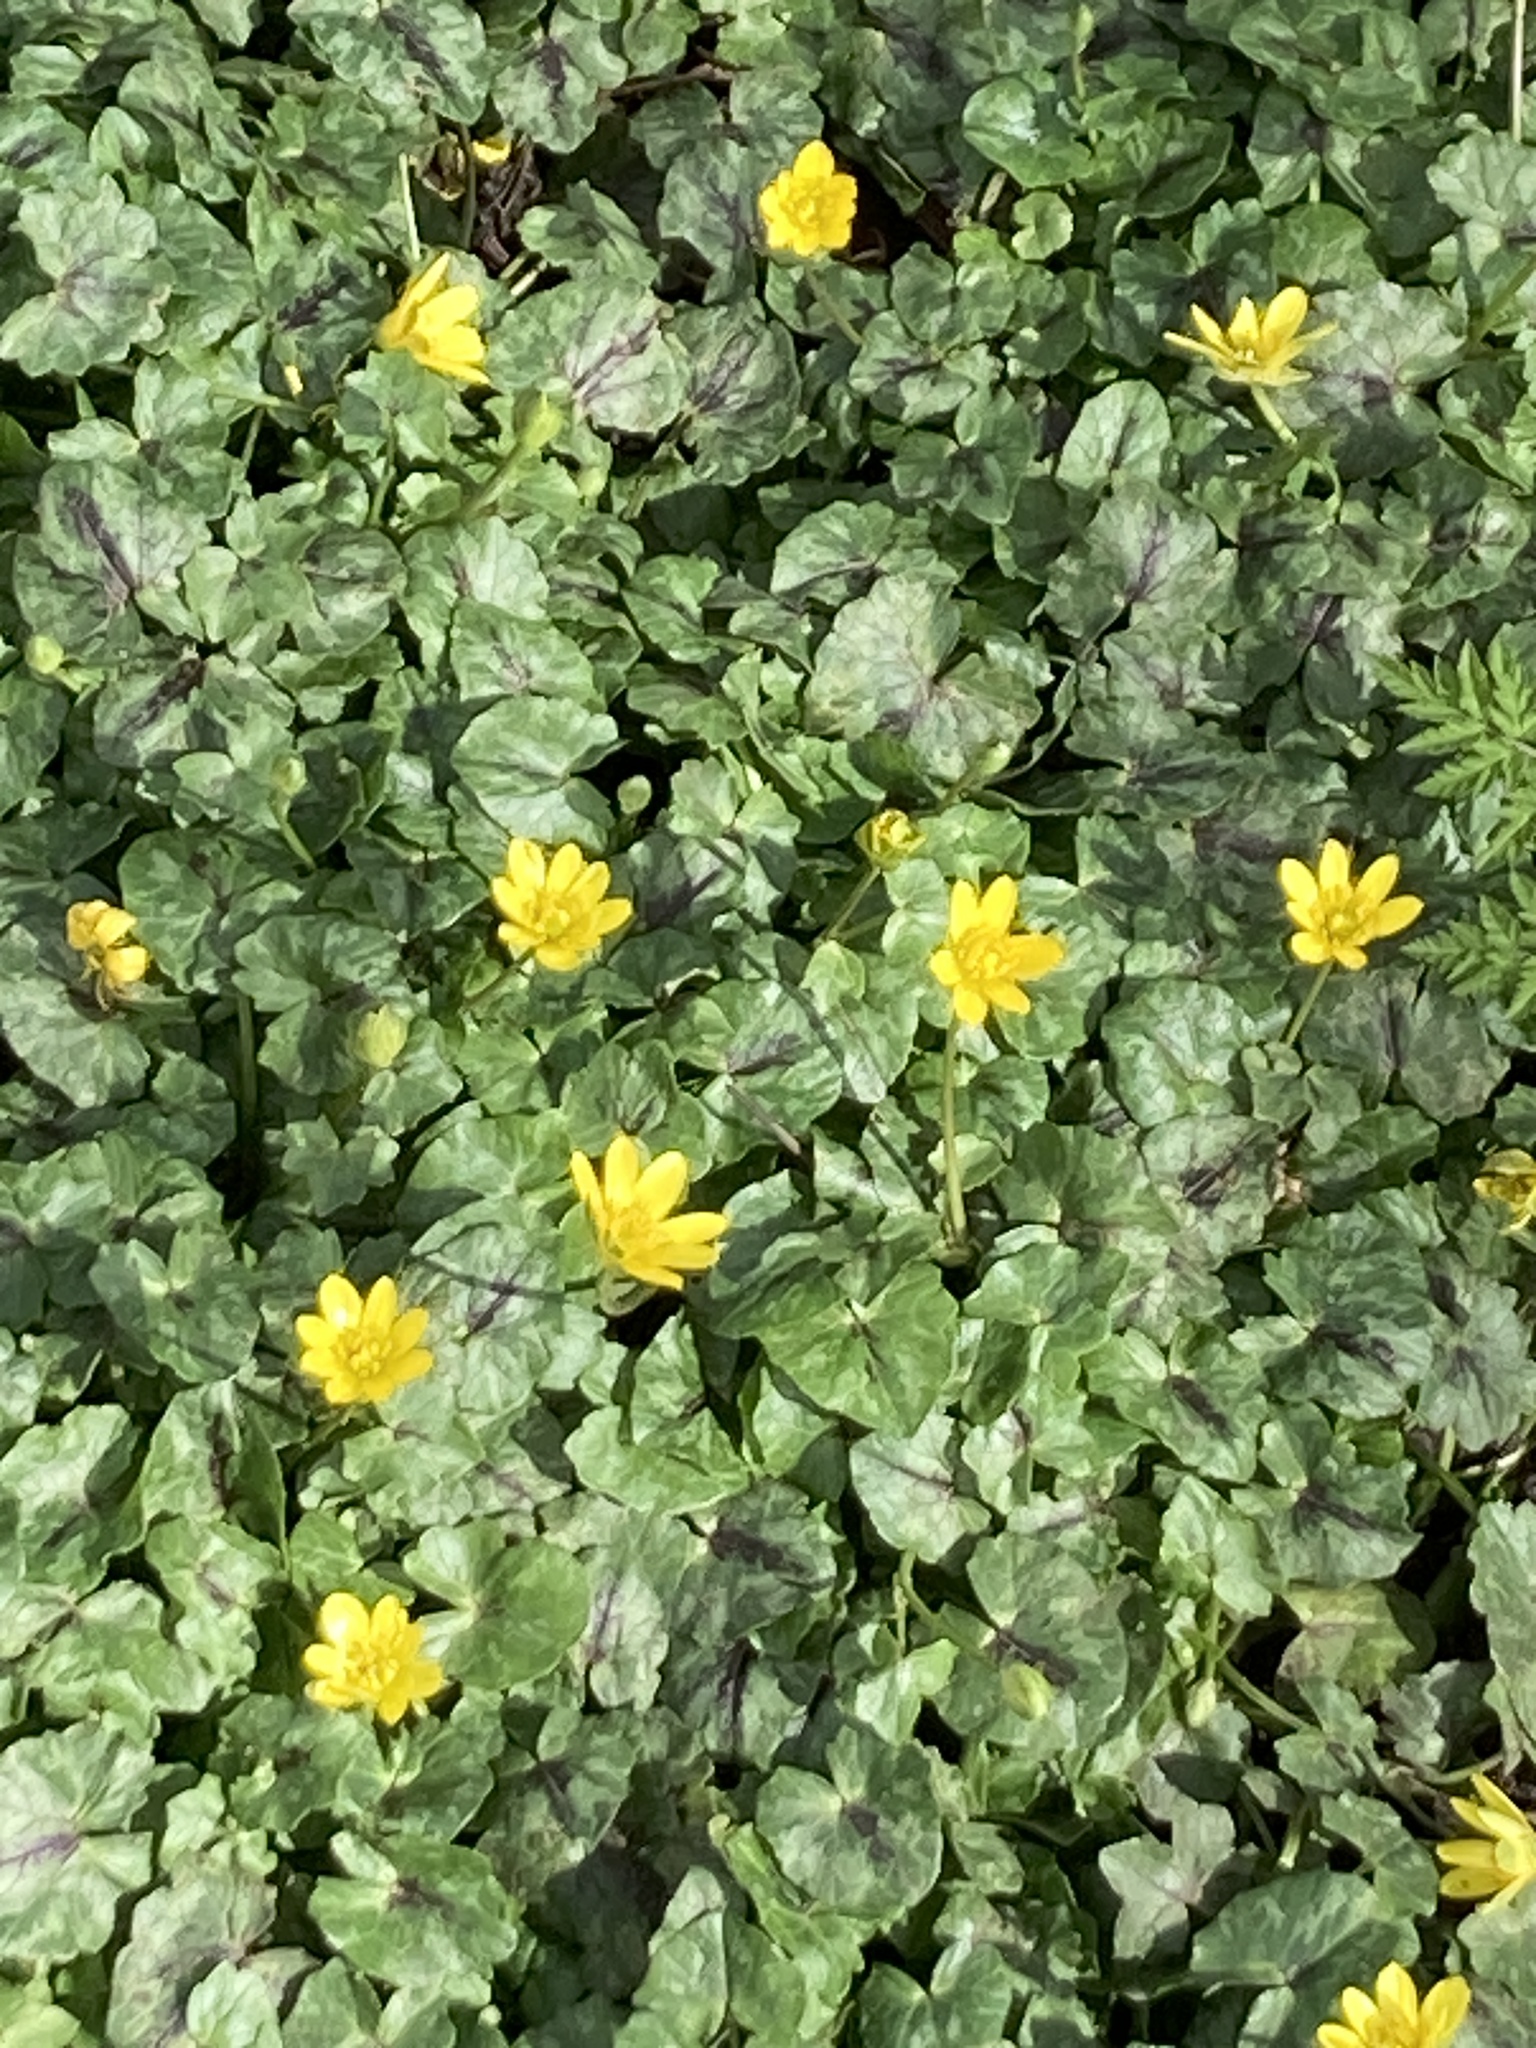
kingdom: Plantae
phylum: Tracheophyta
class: Magnoliopsida
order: Ranunculales
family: Ranunculaceae
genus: Ficaria
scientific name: Ficaria verna
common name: Lesser celandine
